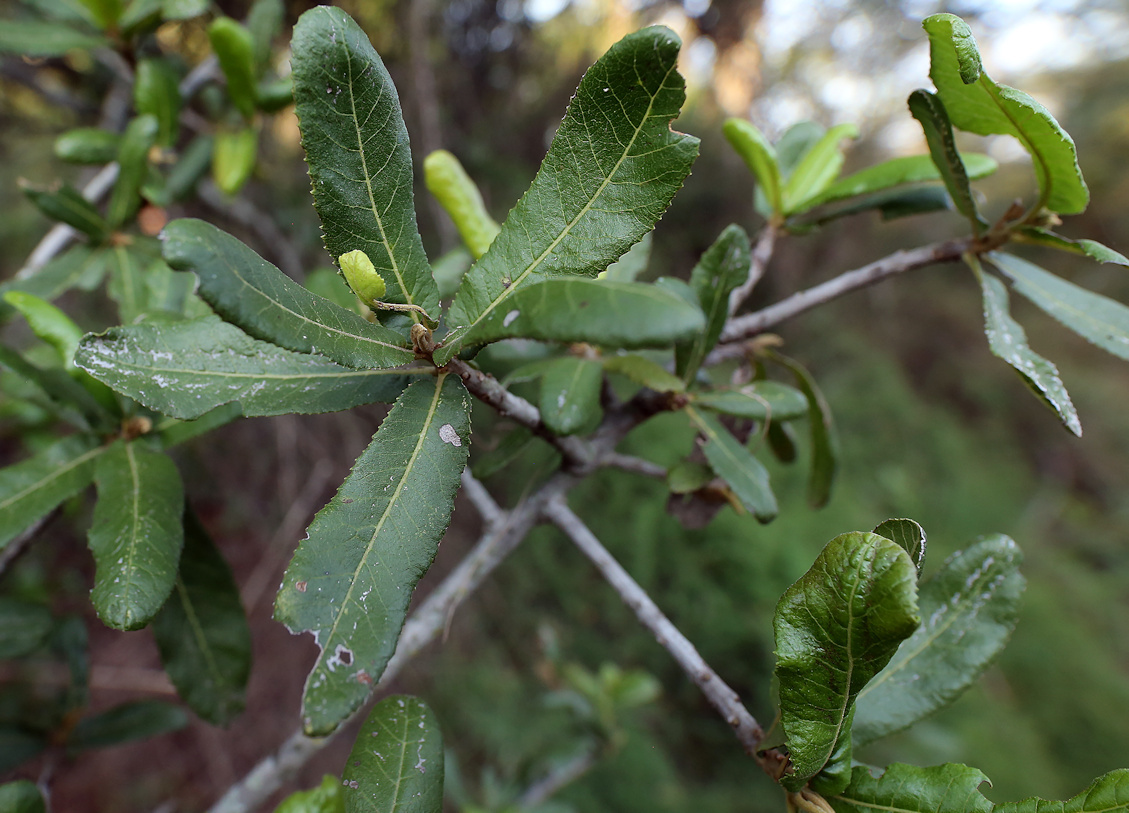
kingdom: Plantae
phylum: Tracheophyta
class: Magnoliopsida
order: Sapindales
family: Sapindaceae
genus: Pappea
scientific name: Pappea capensis
